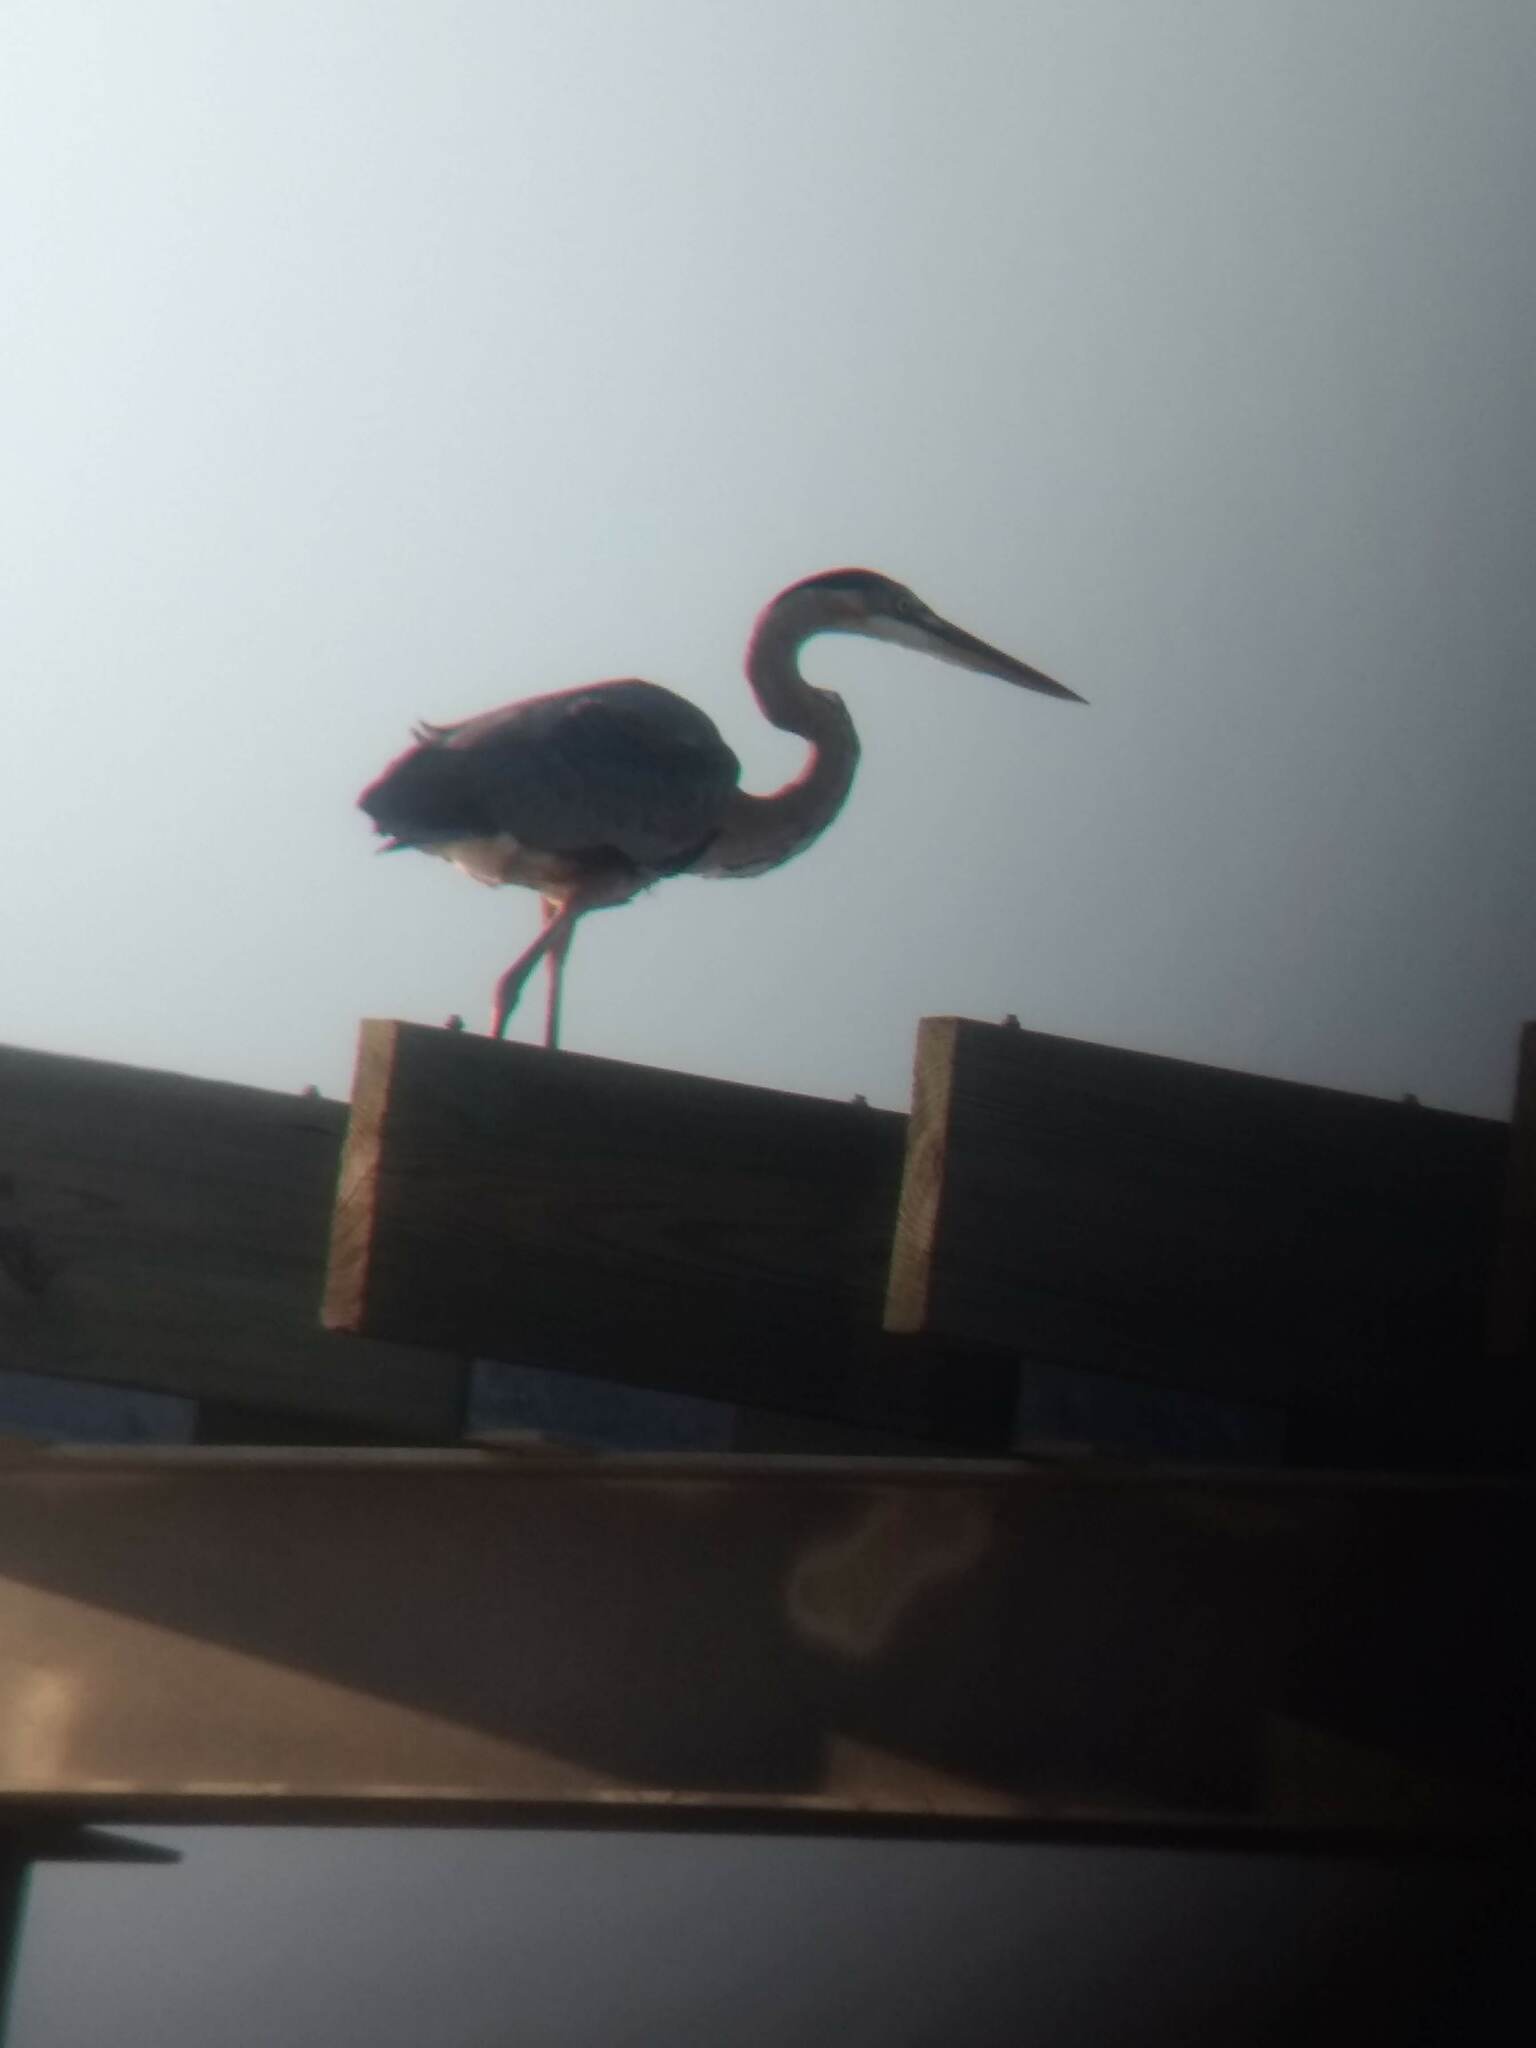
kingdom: Animalia
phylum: Chordata
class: Aves
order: Pelecaniformes
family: Ardeidae
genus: Ardea
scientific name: Ardea herodias
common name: Great blue heron
